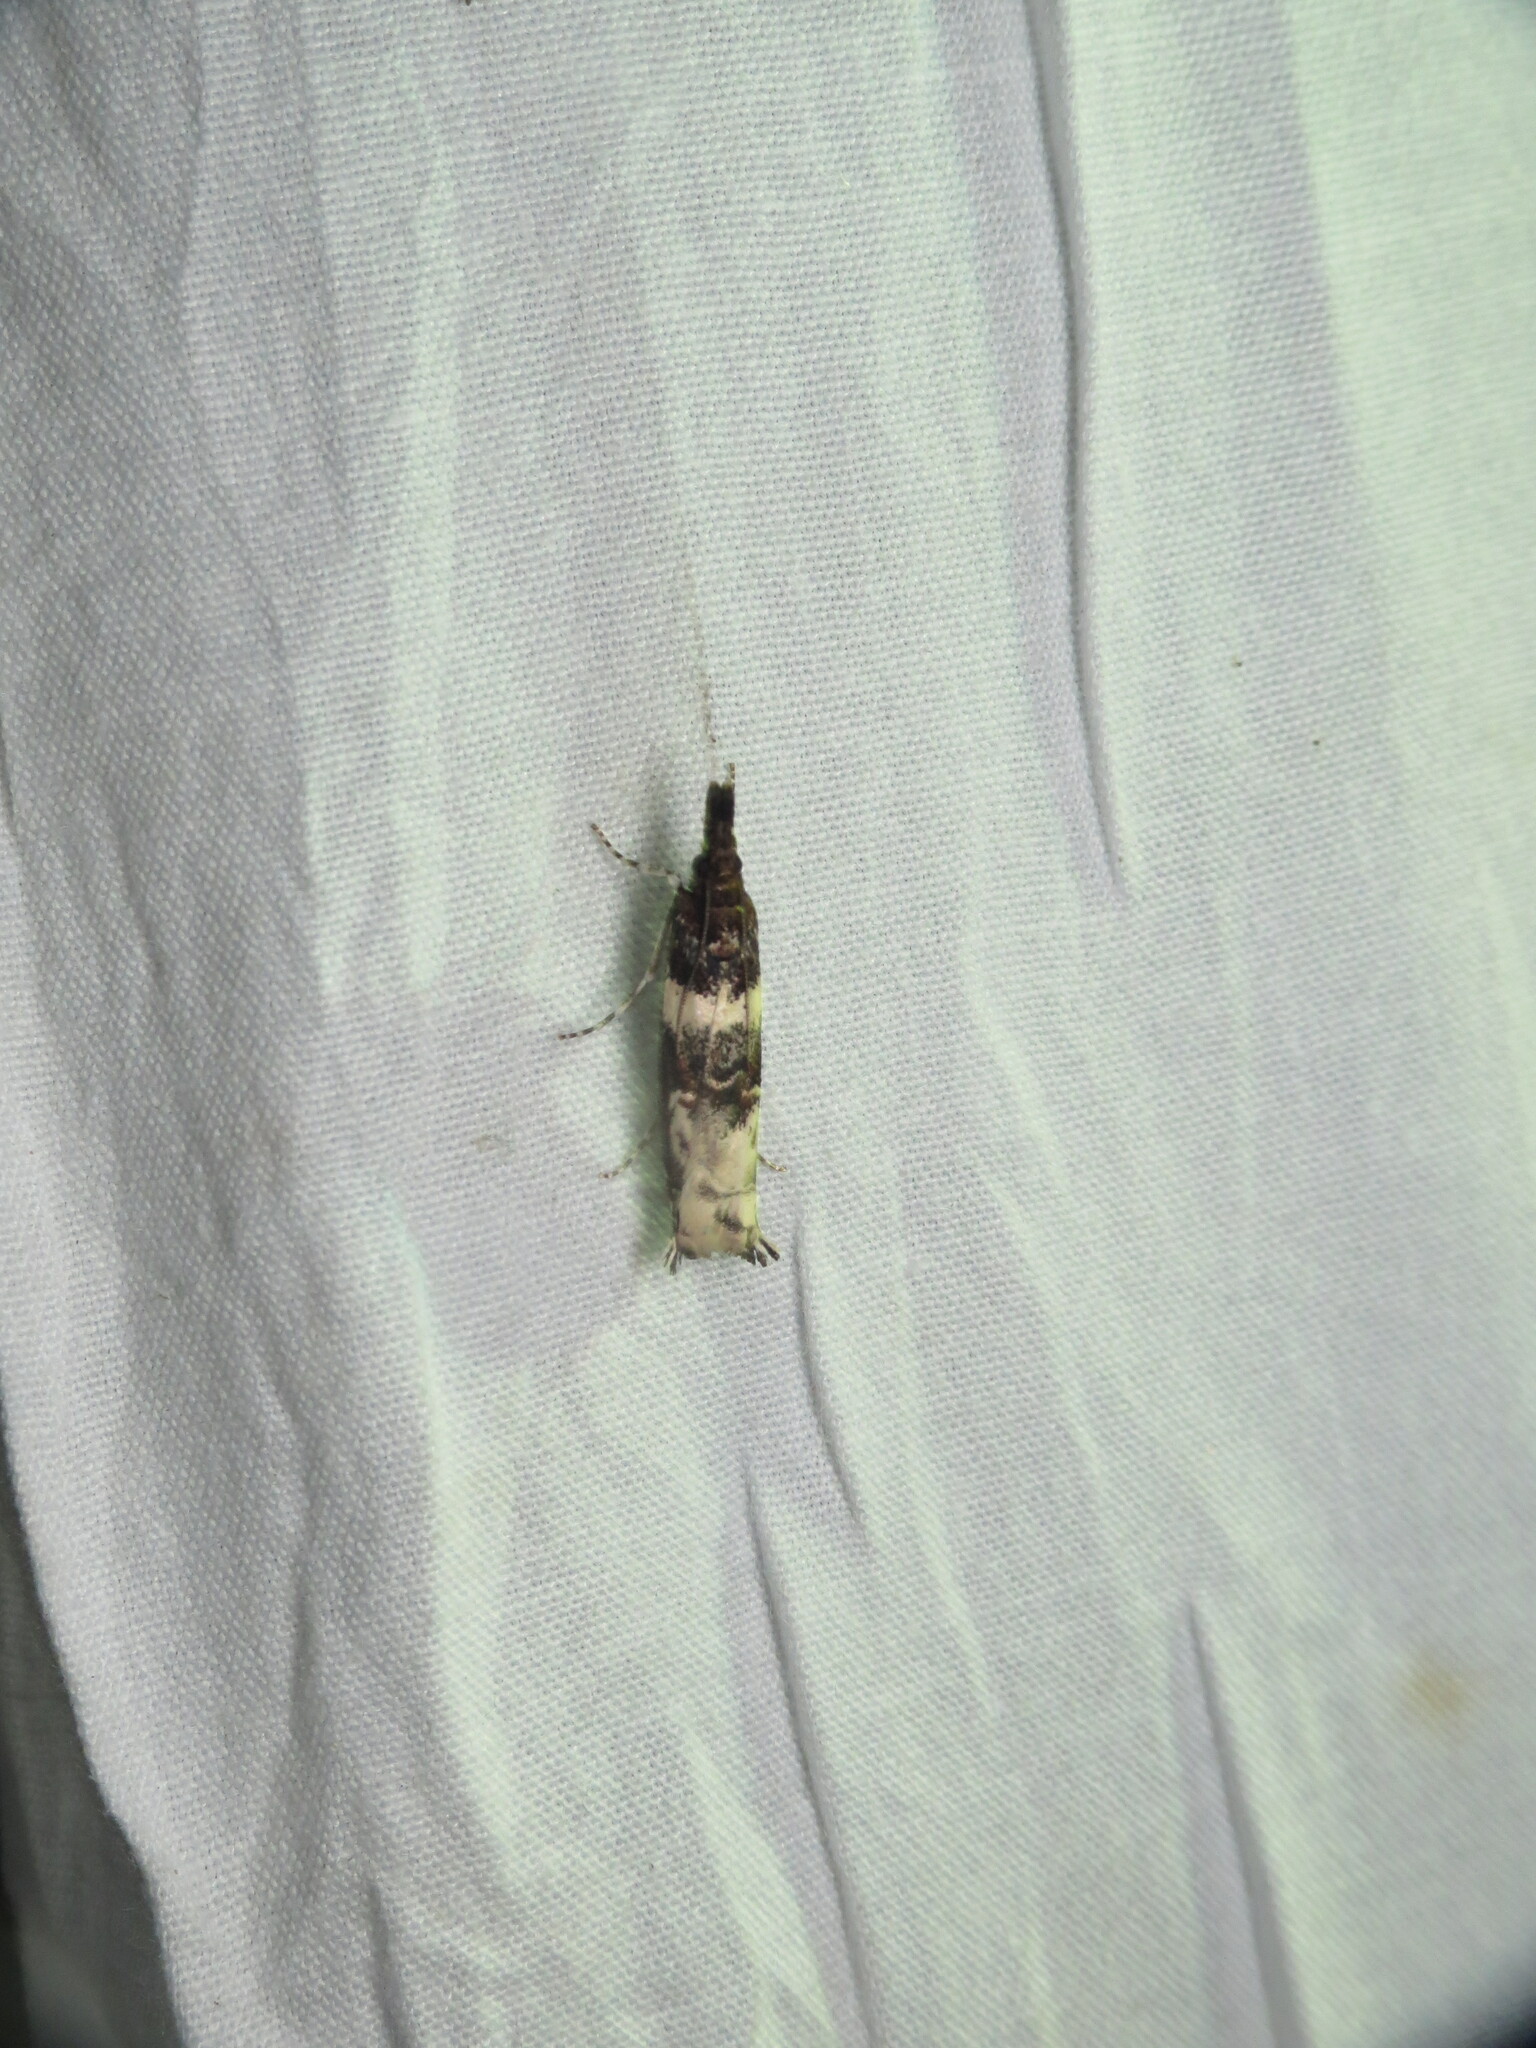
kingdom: Animalia
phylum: Arthropoda
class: Insecta
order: Lepidoptera
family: Crambidae
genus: Prionapteryx
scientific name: Prionapteryx nebulifera
